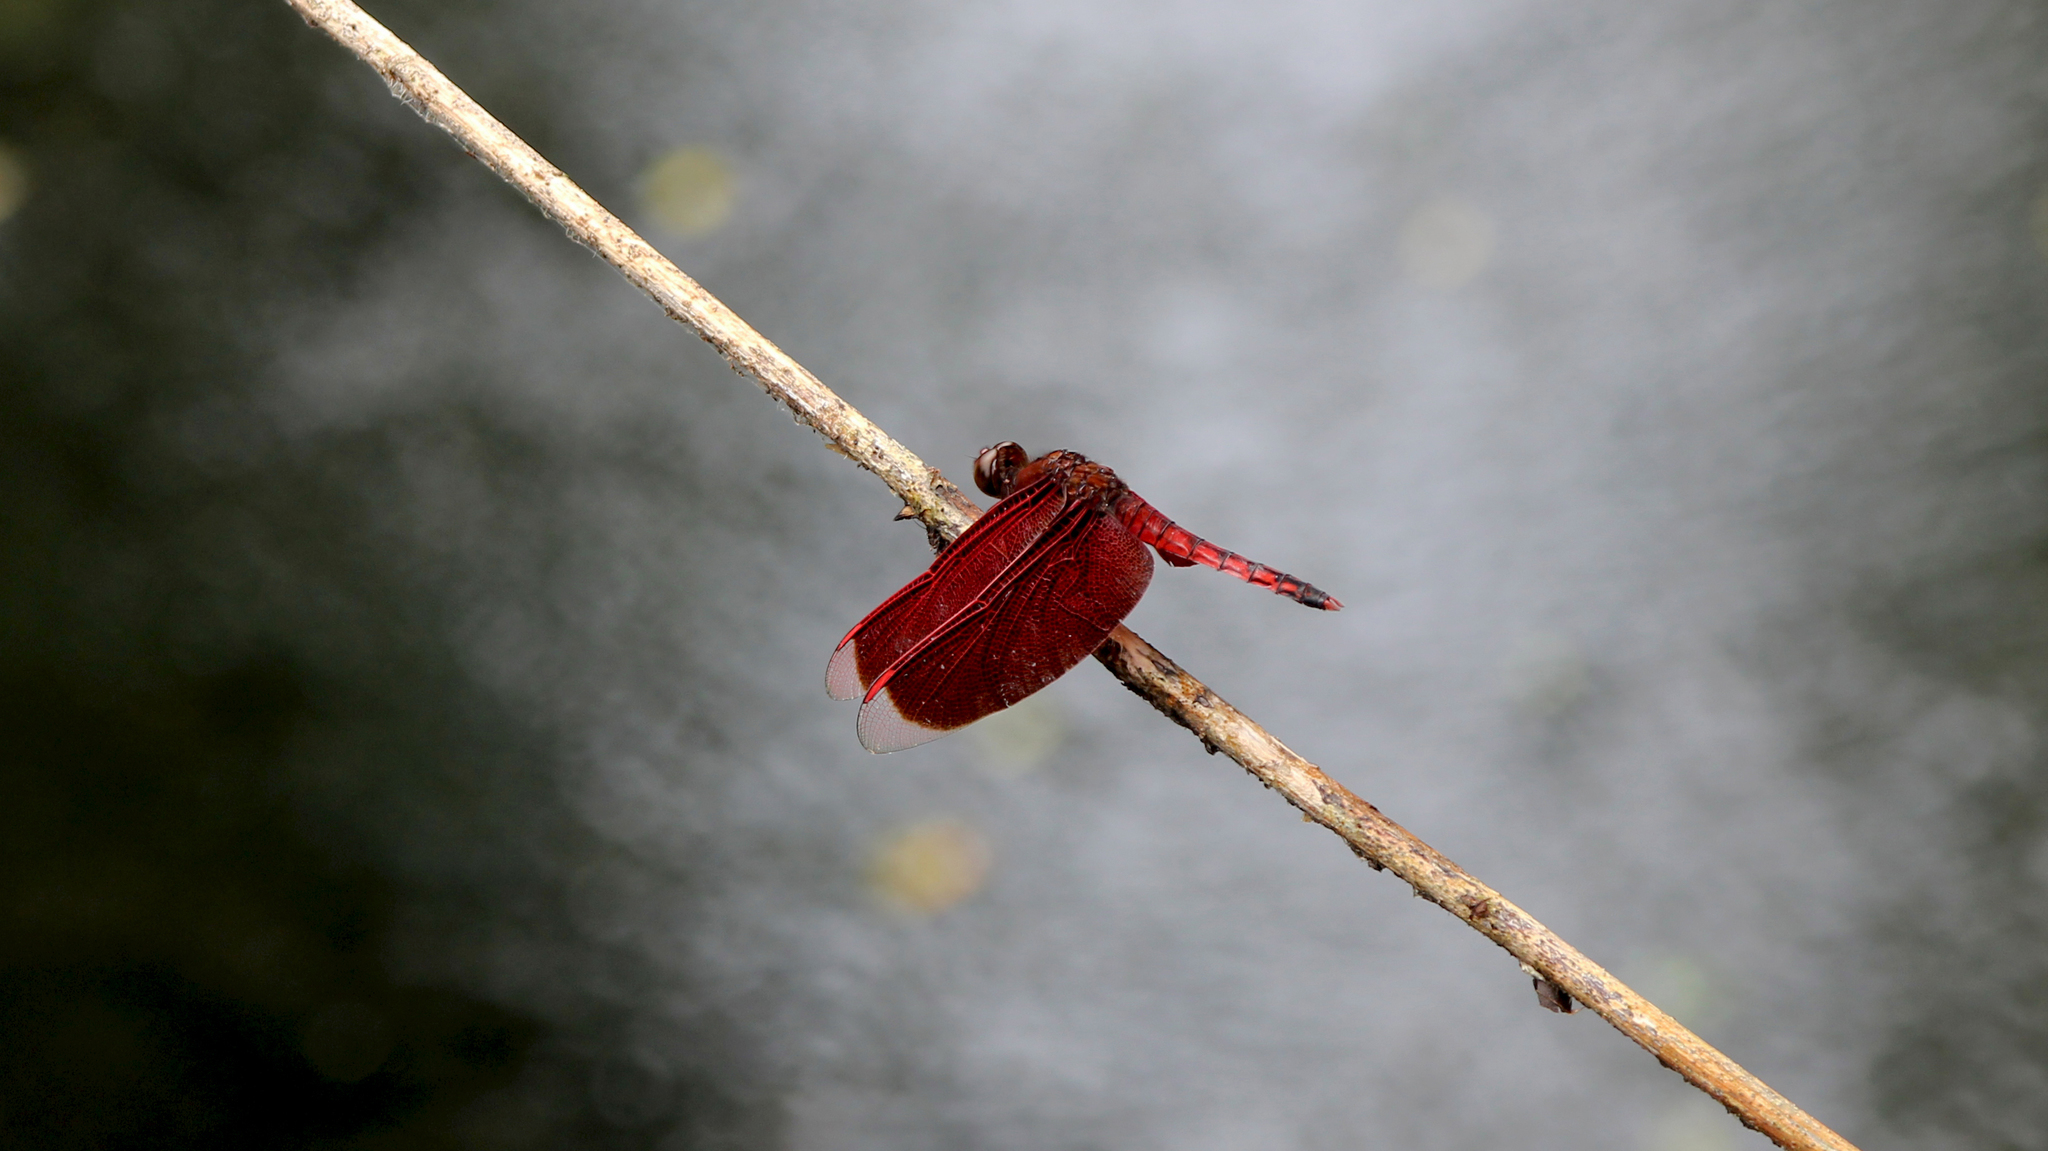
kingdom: Animalia
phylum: Arthropoda
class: Insecta
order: Odonata
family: Libellulidae
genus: Neurothemis
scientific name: Neurothemis taiwanensis
